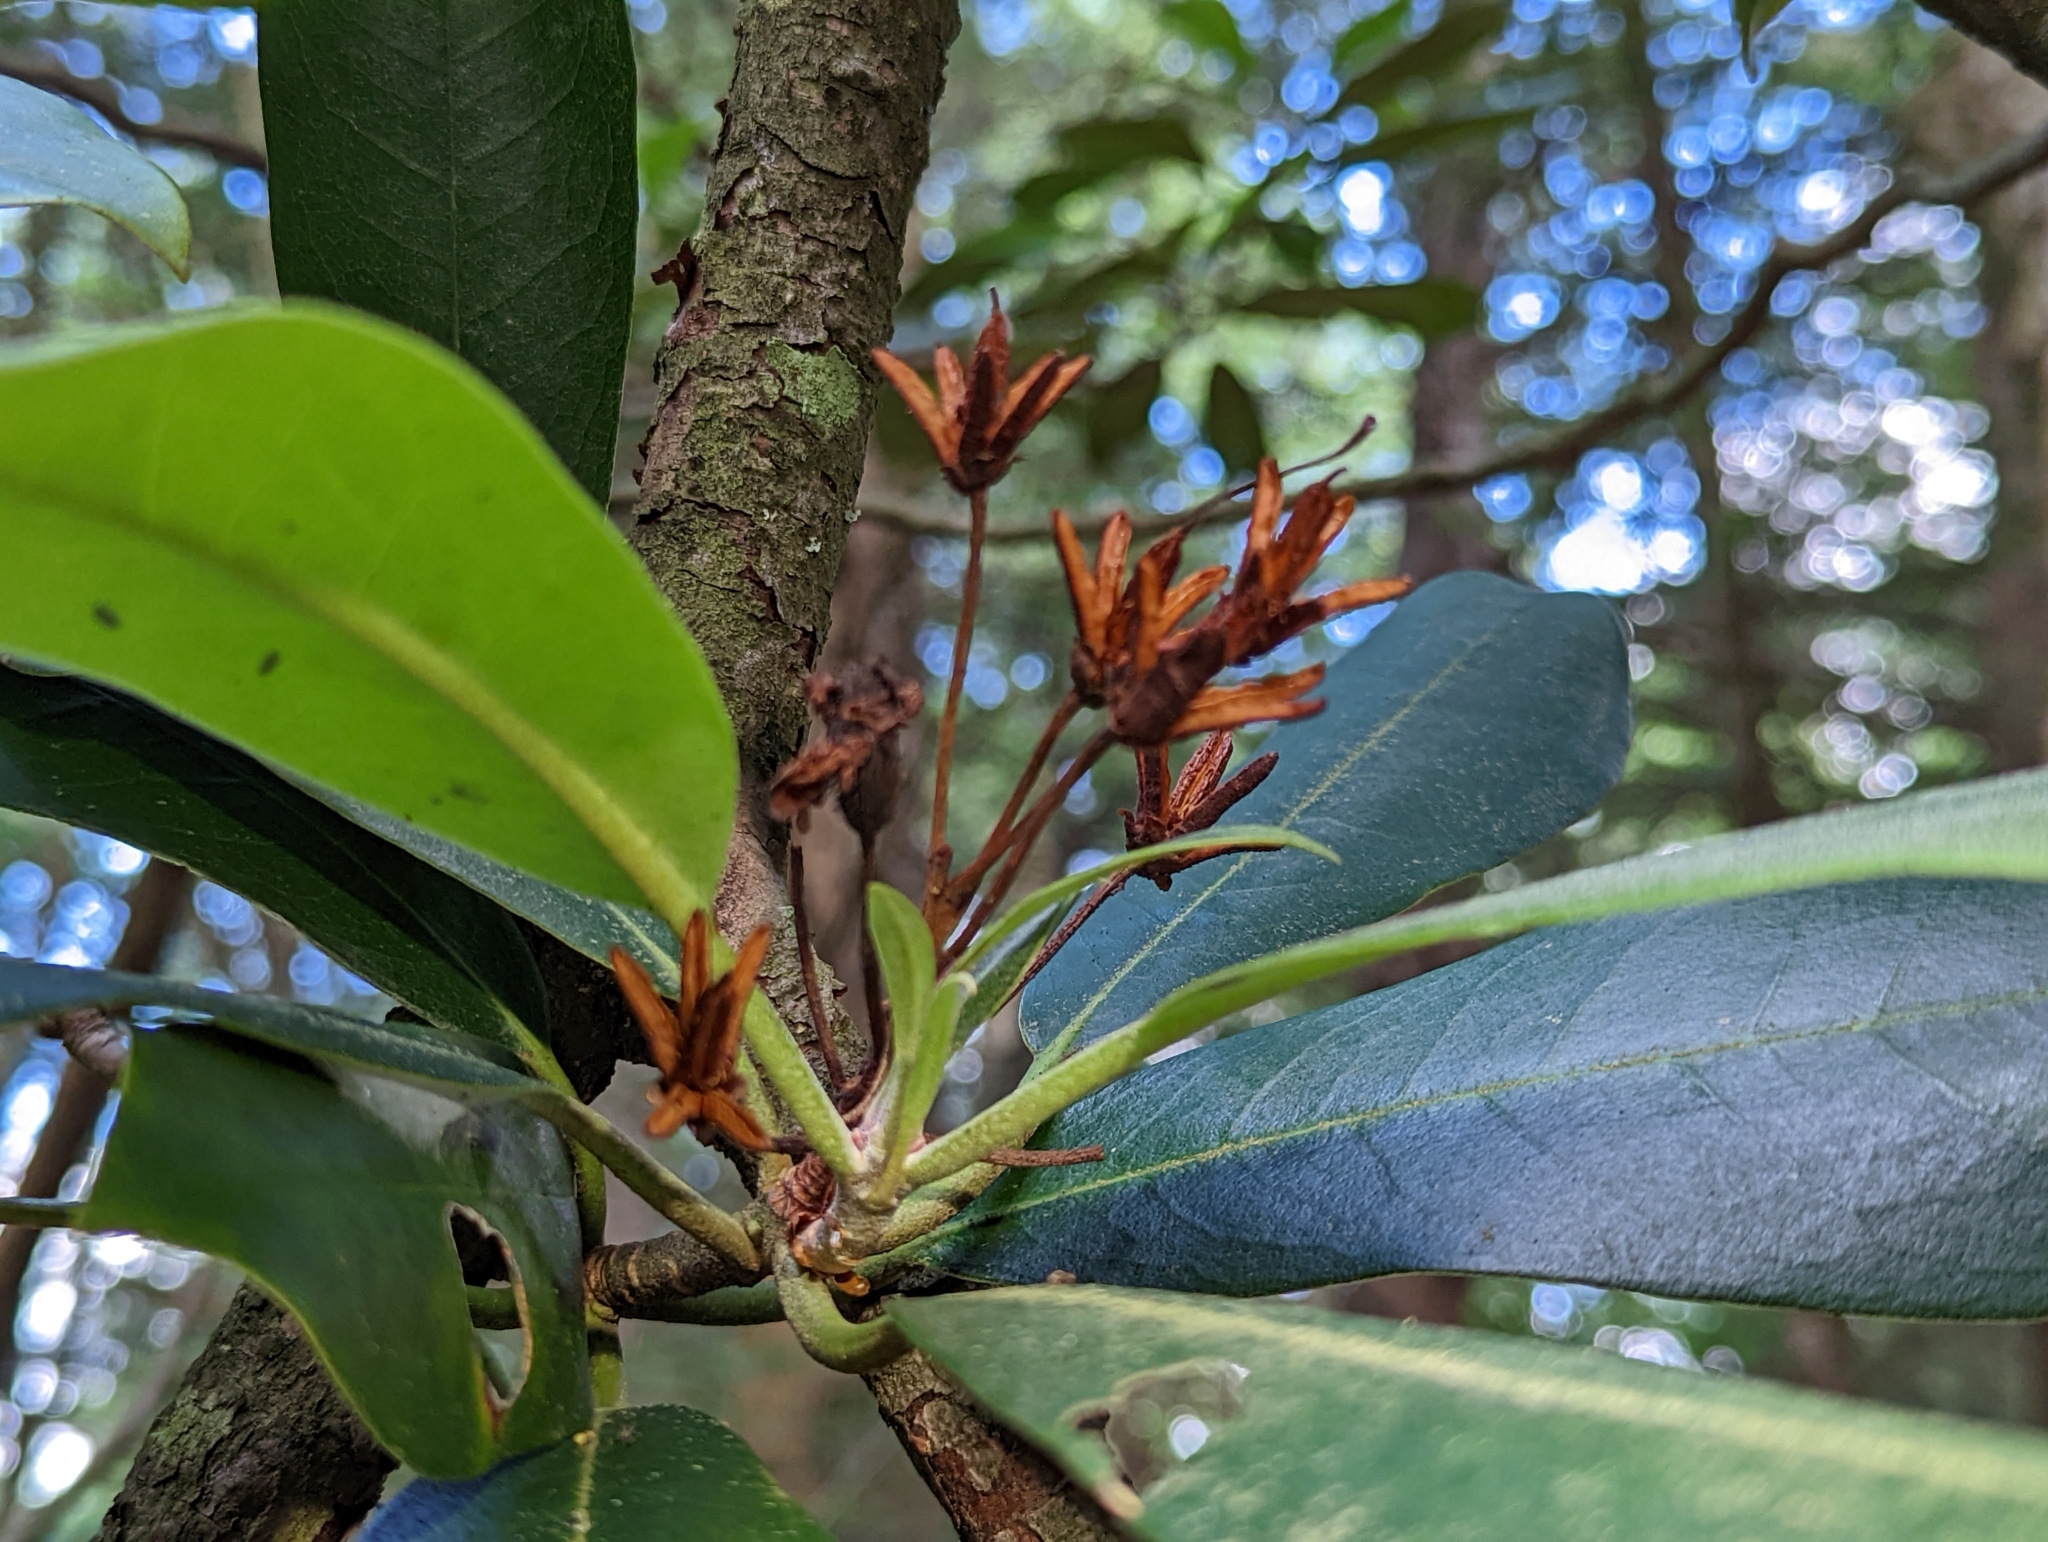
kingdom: Plantae
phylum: Tracheophyta
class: Magnoliopsida
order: Ericales
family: Ericaceae
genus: Rhododendron
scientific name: Rhododendron maximum
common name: Great rhododendron
